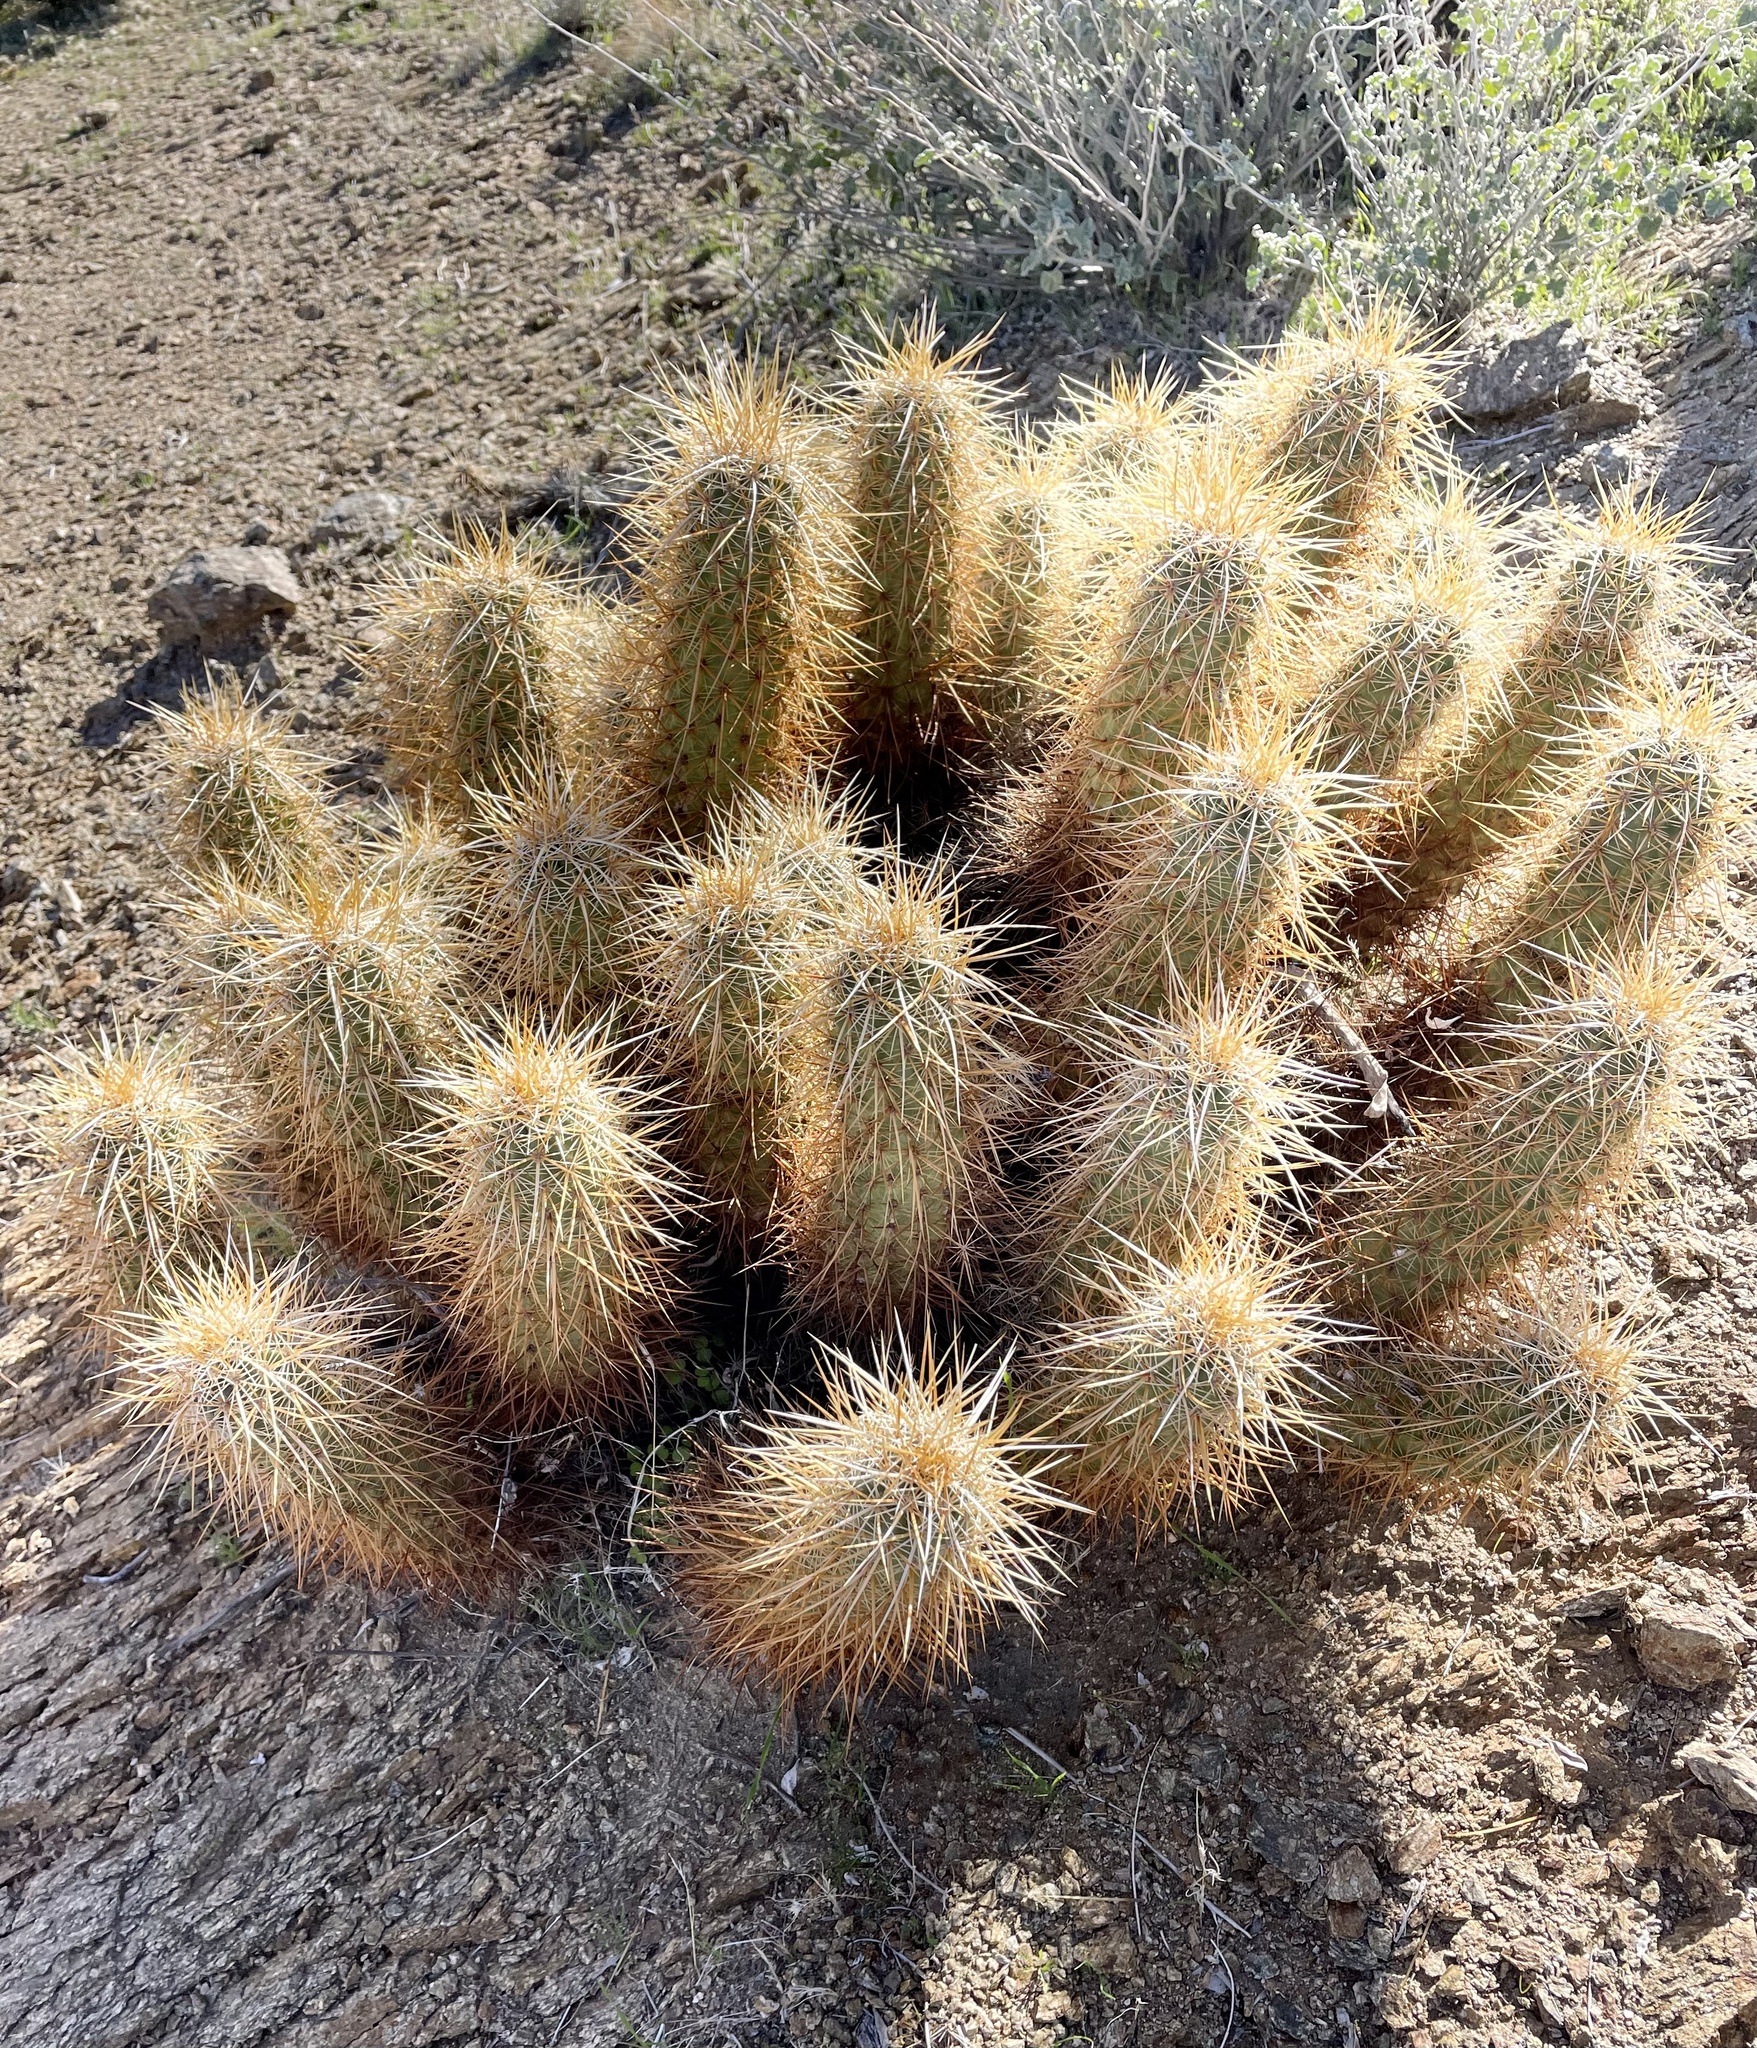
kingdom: Plantae
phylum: Tracheophyta
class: Magnoliopsida
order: Caryophyllales
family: Cactaceae
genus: Echinocereus
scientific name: Echinocereus engelmannii
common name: Engelmann's hedgehog cactus
